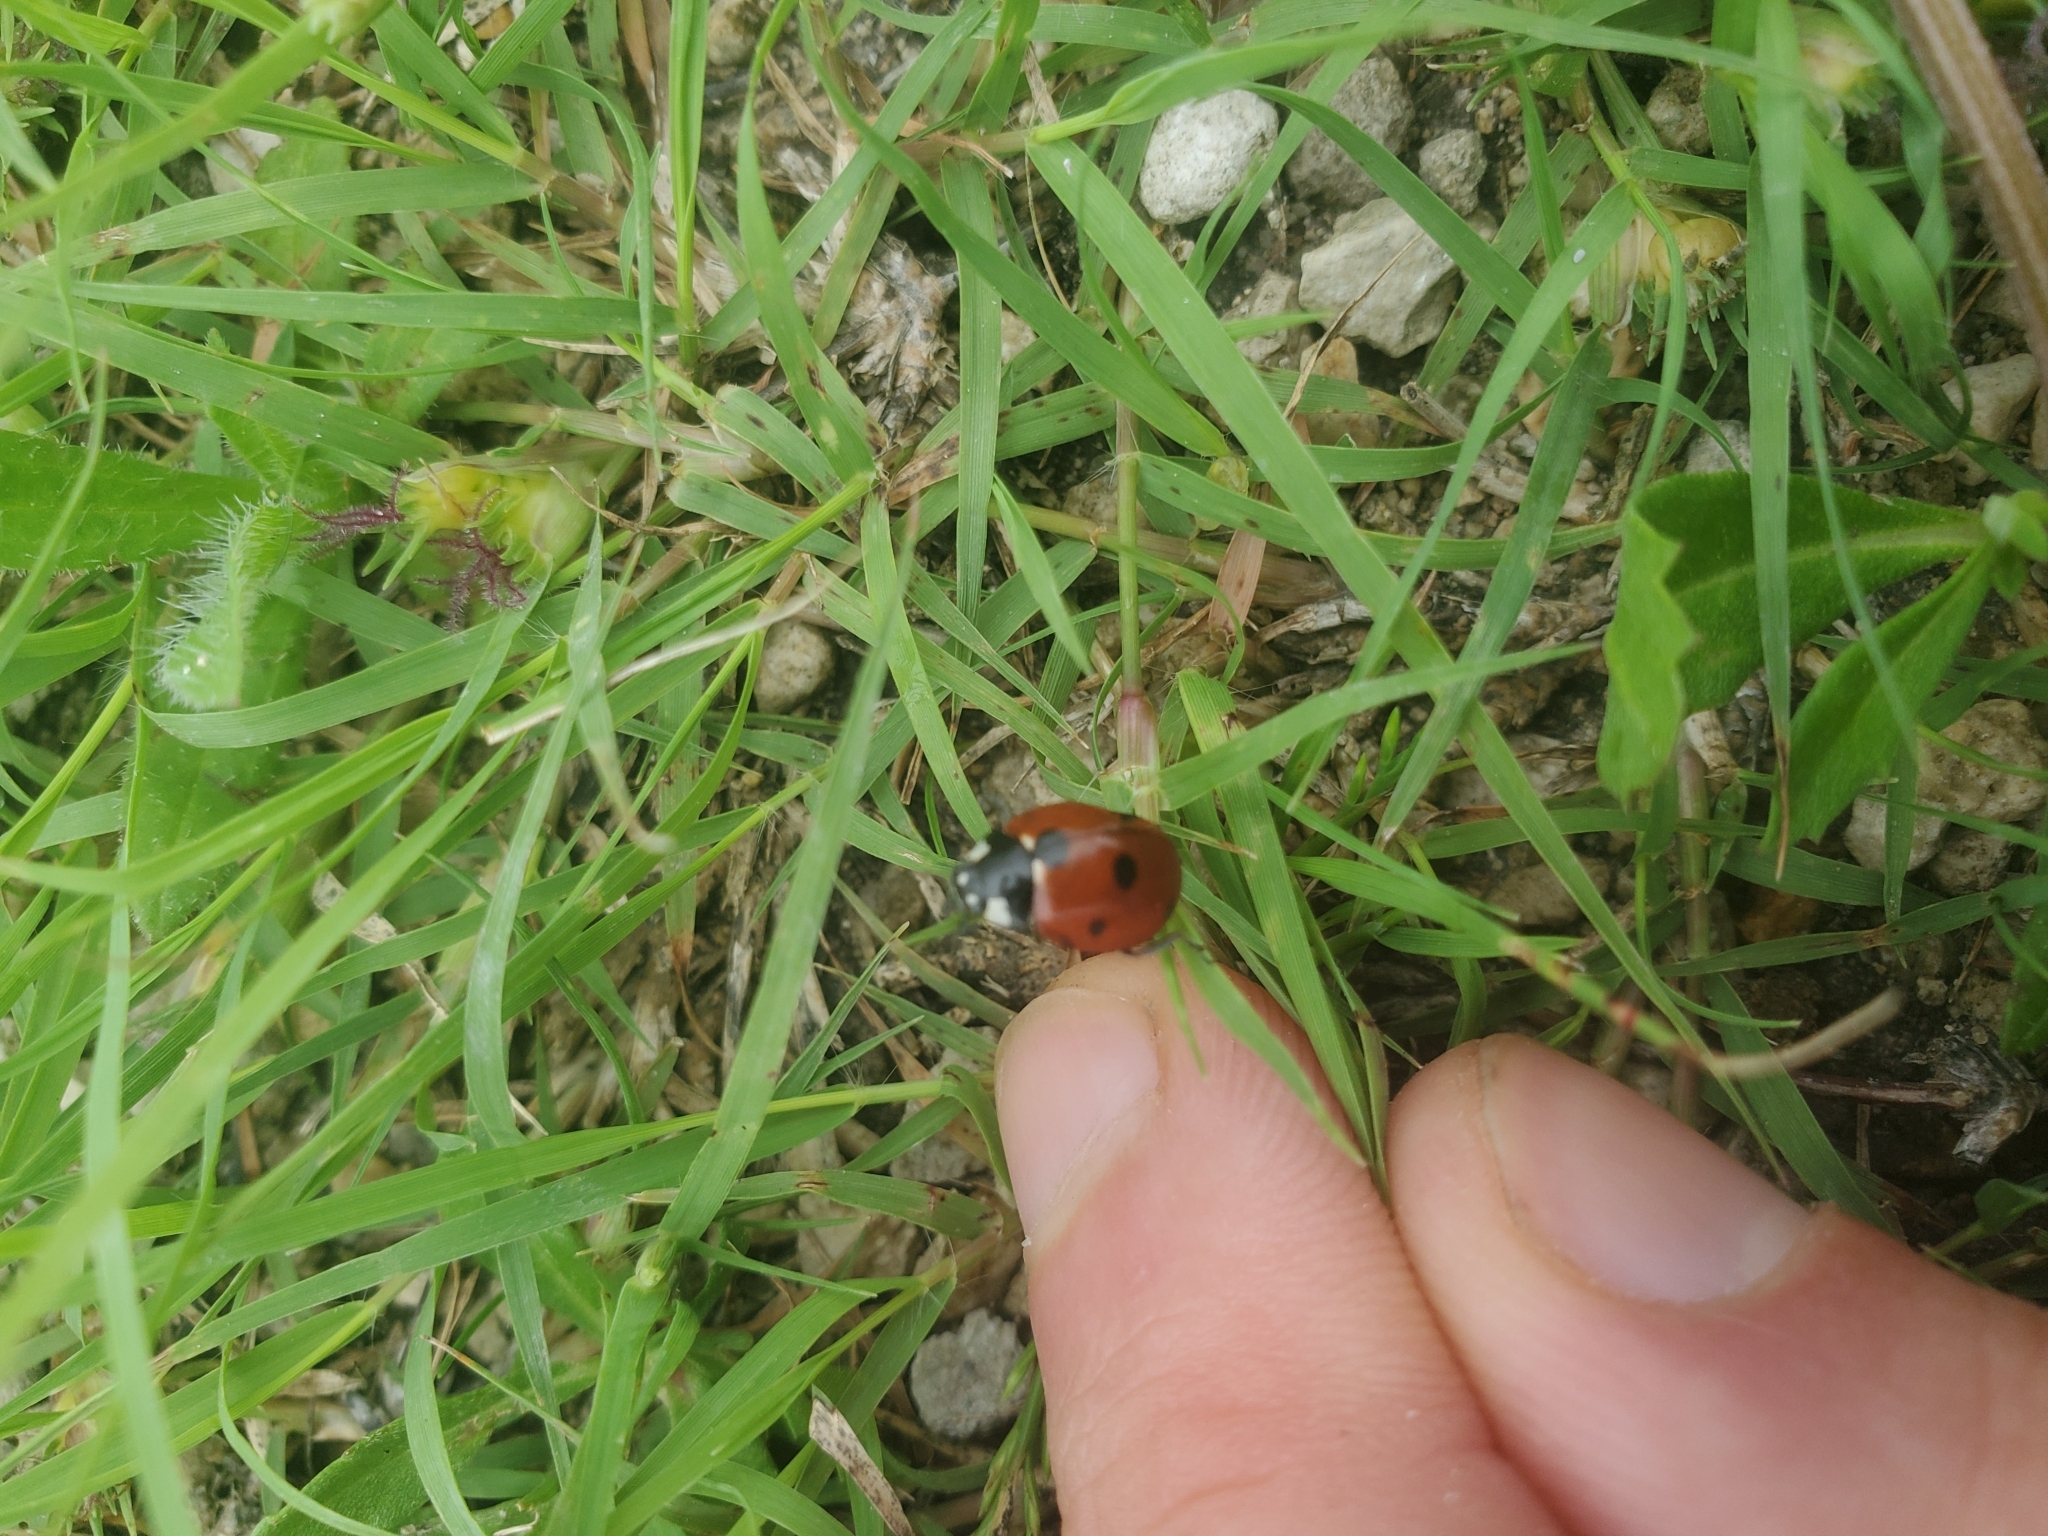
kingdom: Animalia
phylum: Arthropoda
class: Insecta
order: Coleoptera
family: Coccinellidae
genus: Coccinella
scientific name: Coccinella septempunctata
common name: Sevenspotted lady beetle
